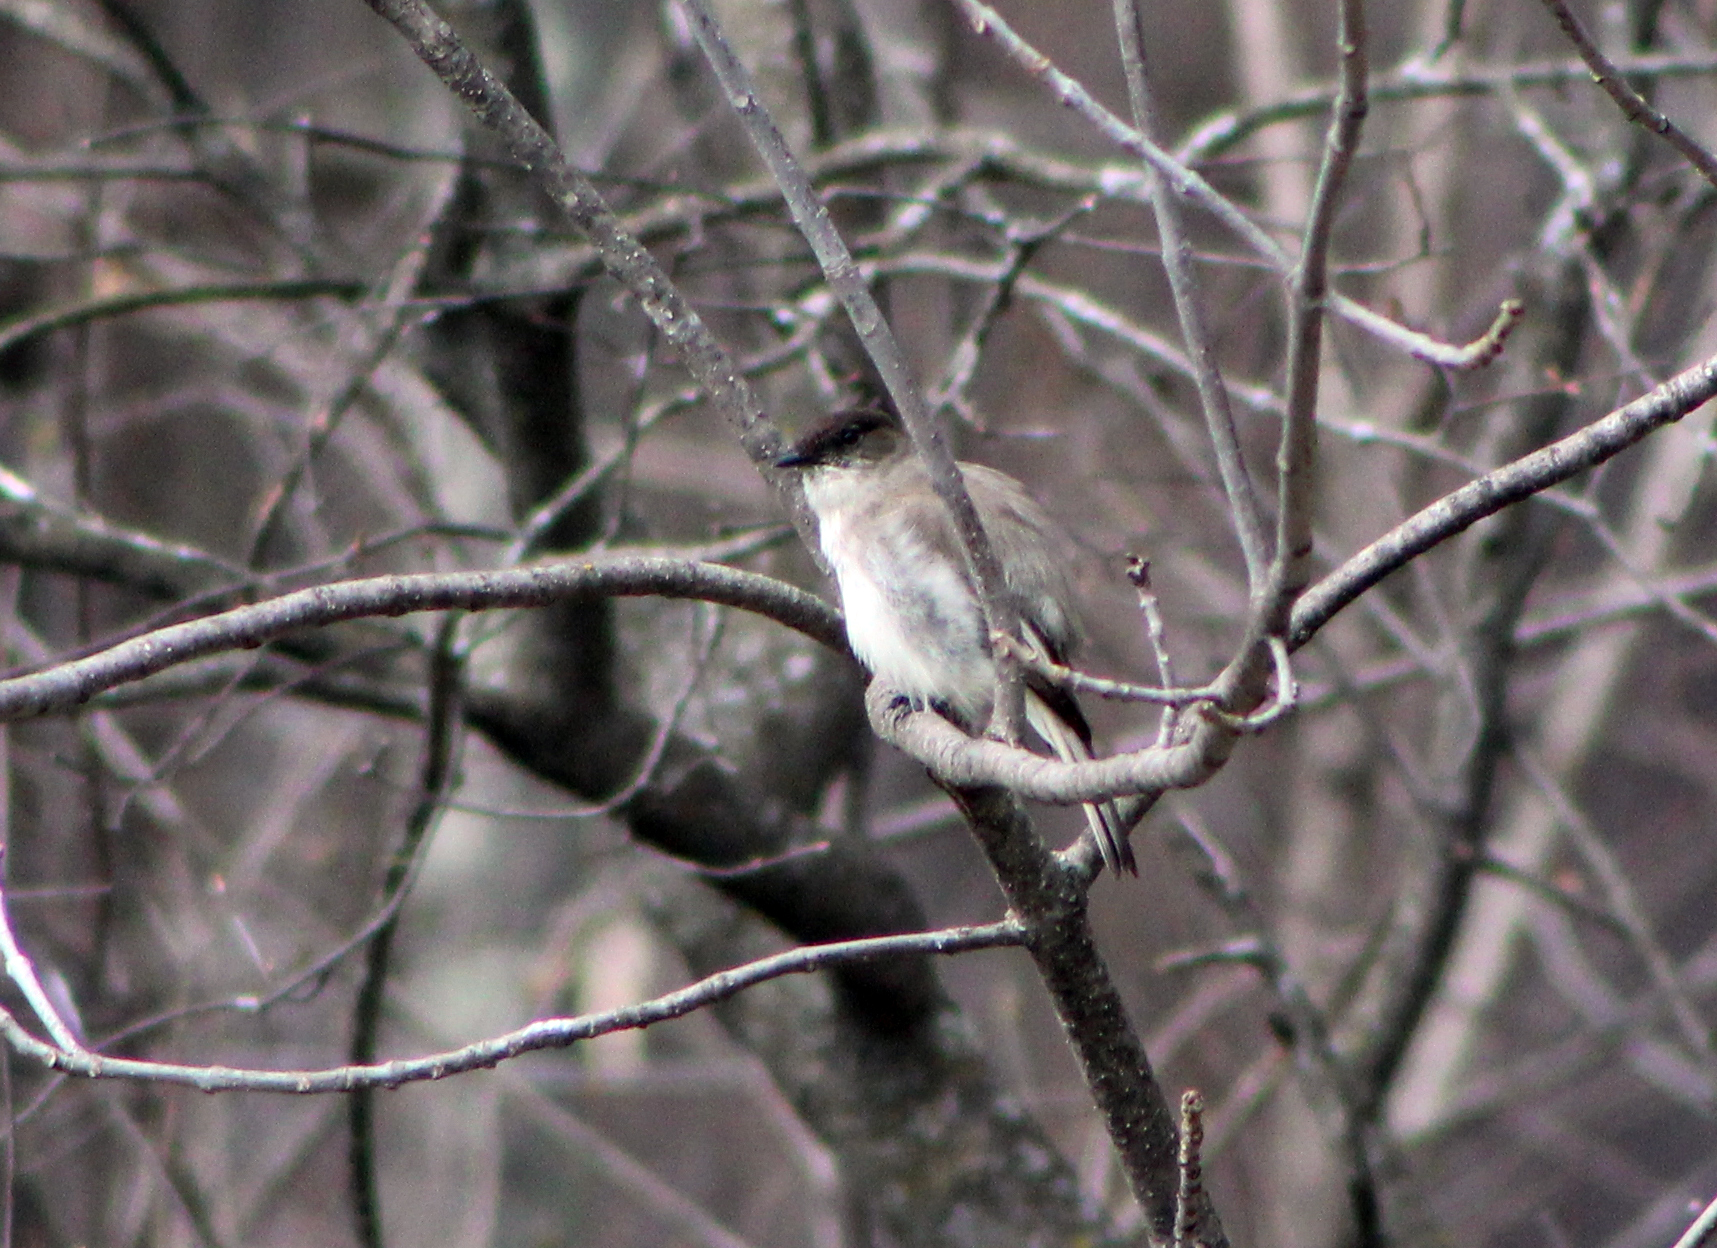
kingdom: Animalia
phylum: Chordata
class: Aves
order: Passeriformes
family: Tyrannidae
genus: Sayornis
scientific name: Sayornis phoebe
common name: Eastern phoebe
